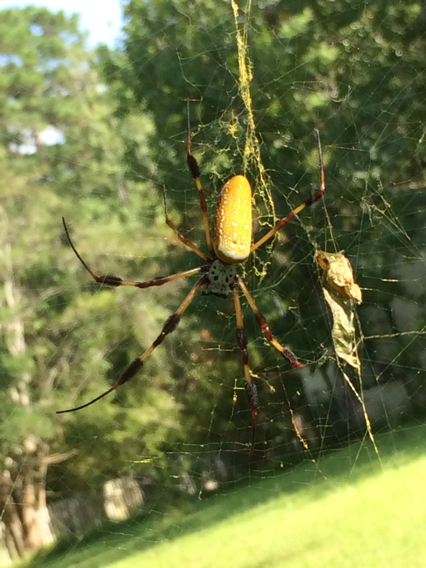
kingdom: Animalia
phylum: Arthropoda
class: Arachnida
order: Araneae
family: Araneidae
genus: Trichonephila
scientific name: Trichonephila clavipes
